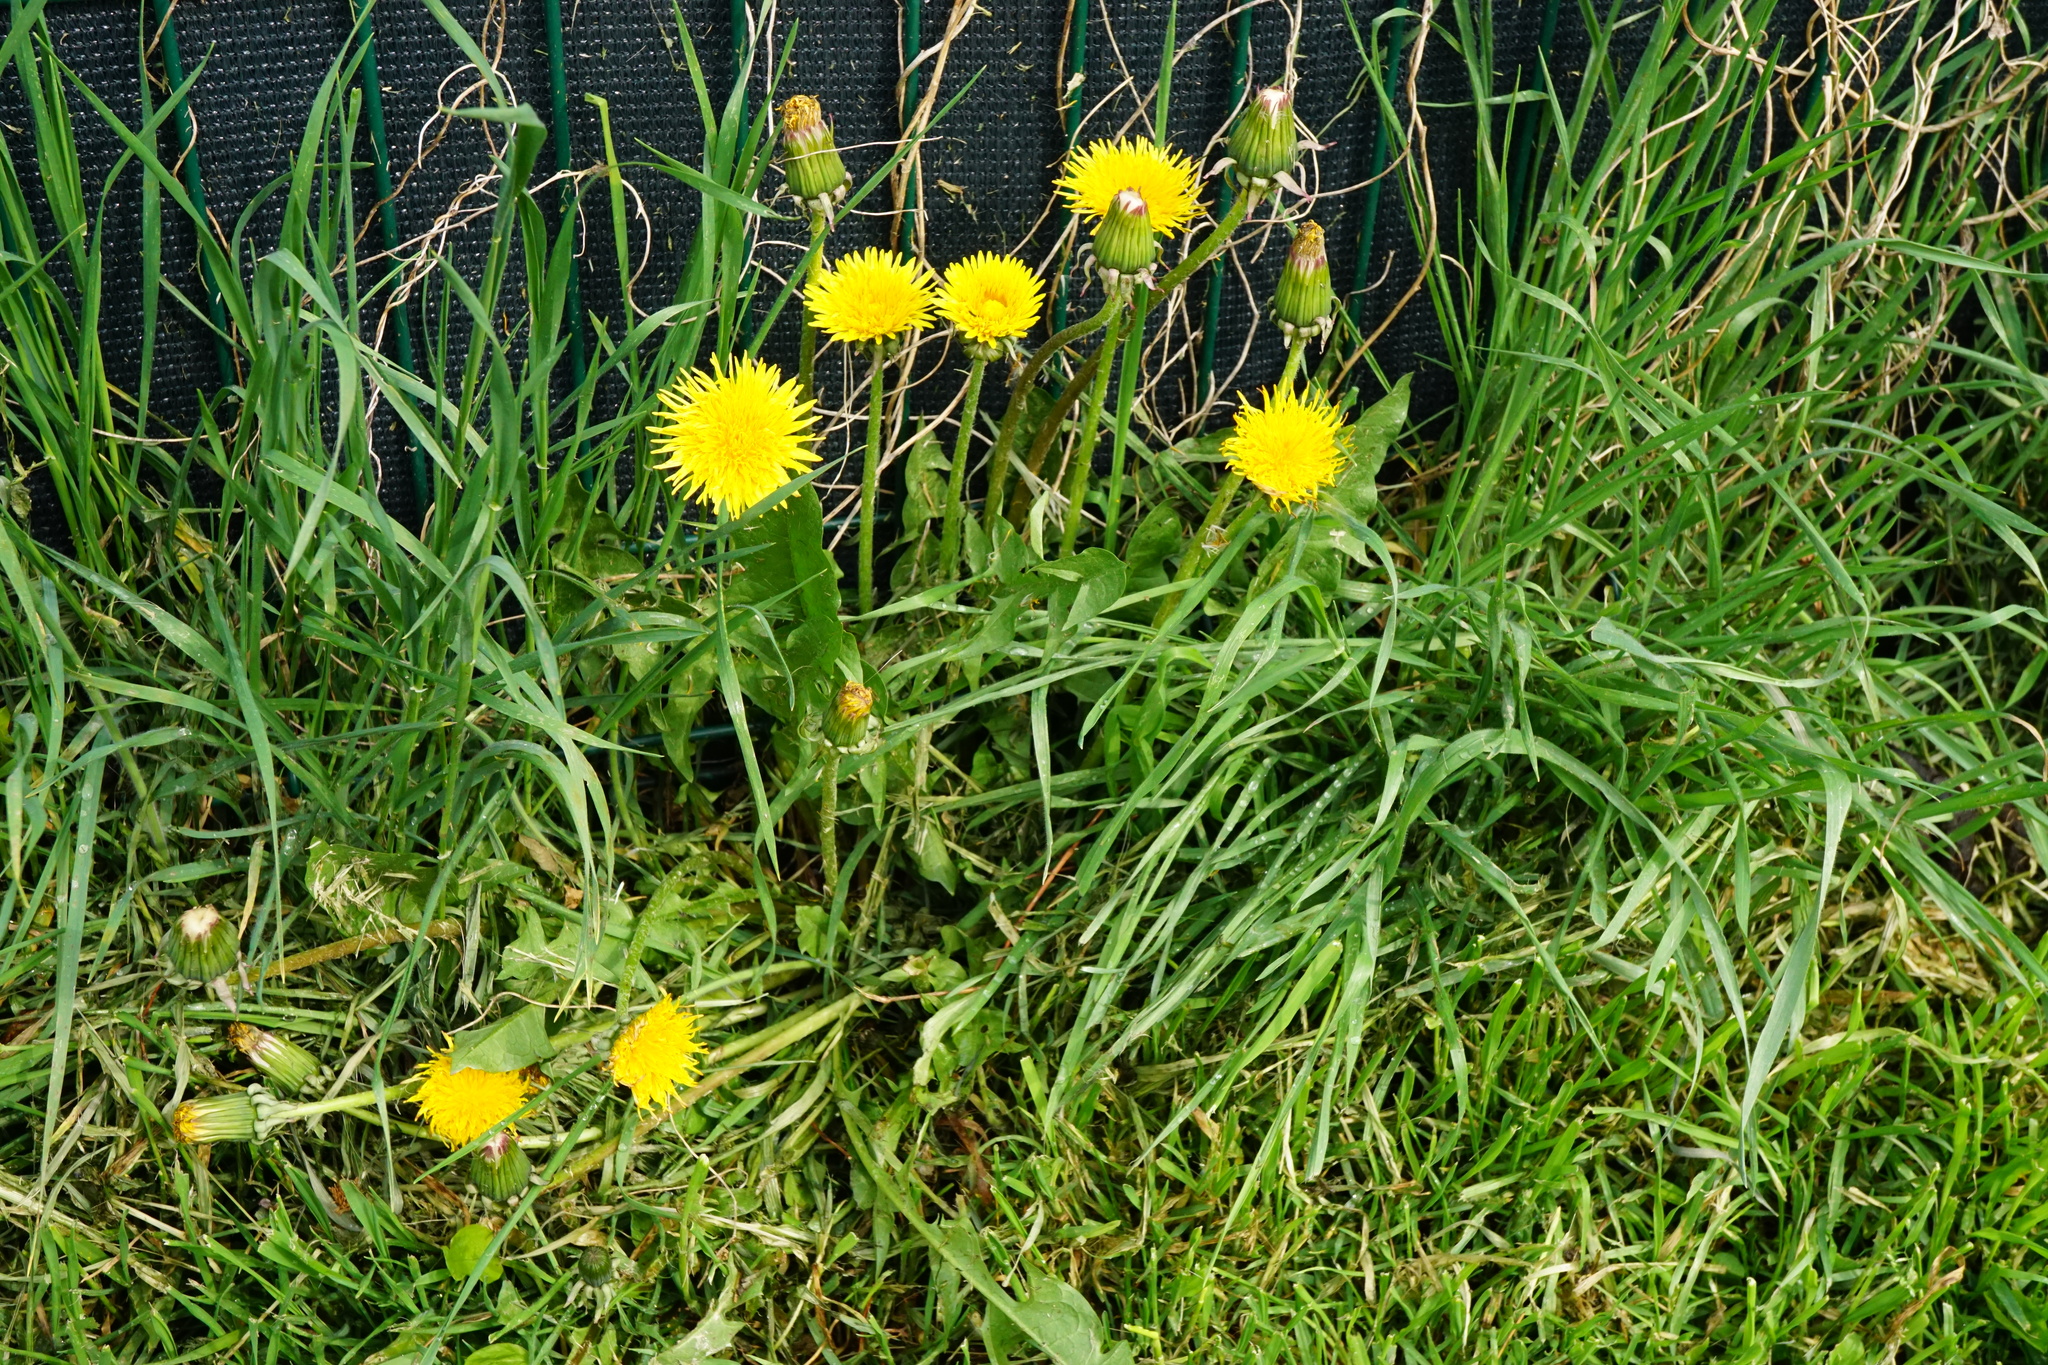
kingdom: Plantae
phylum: Tracheophyta
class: Magnoliopsida
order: Asterales
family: Asteraceae
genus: Taraxacum
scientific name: Taraxacum
